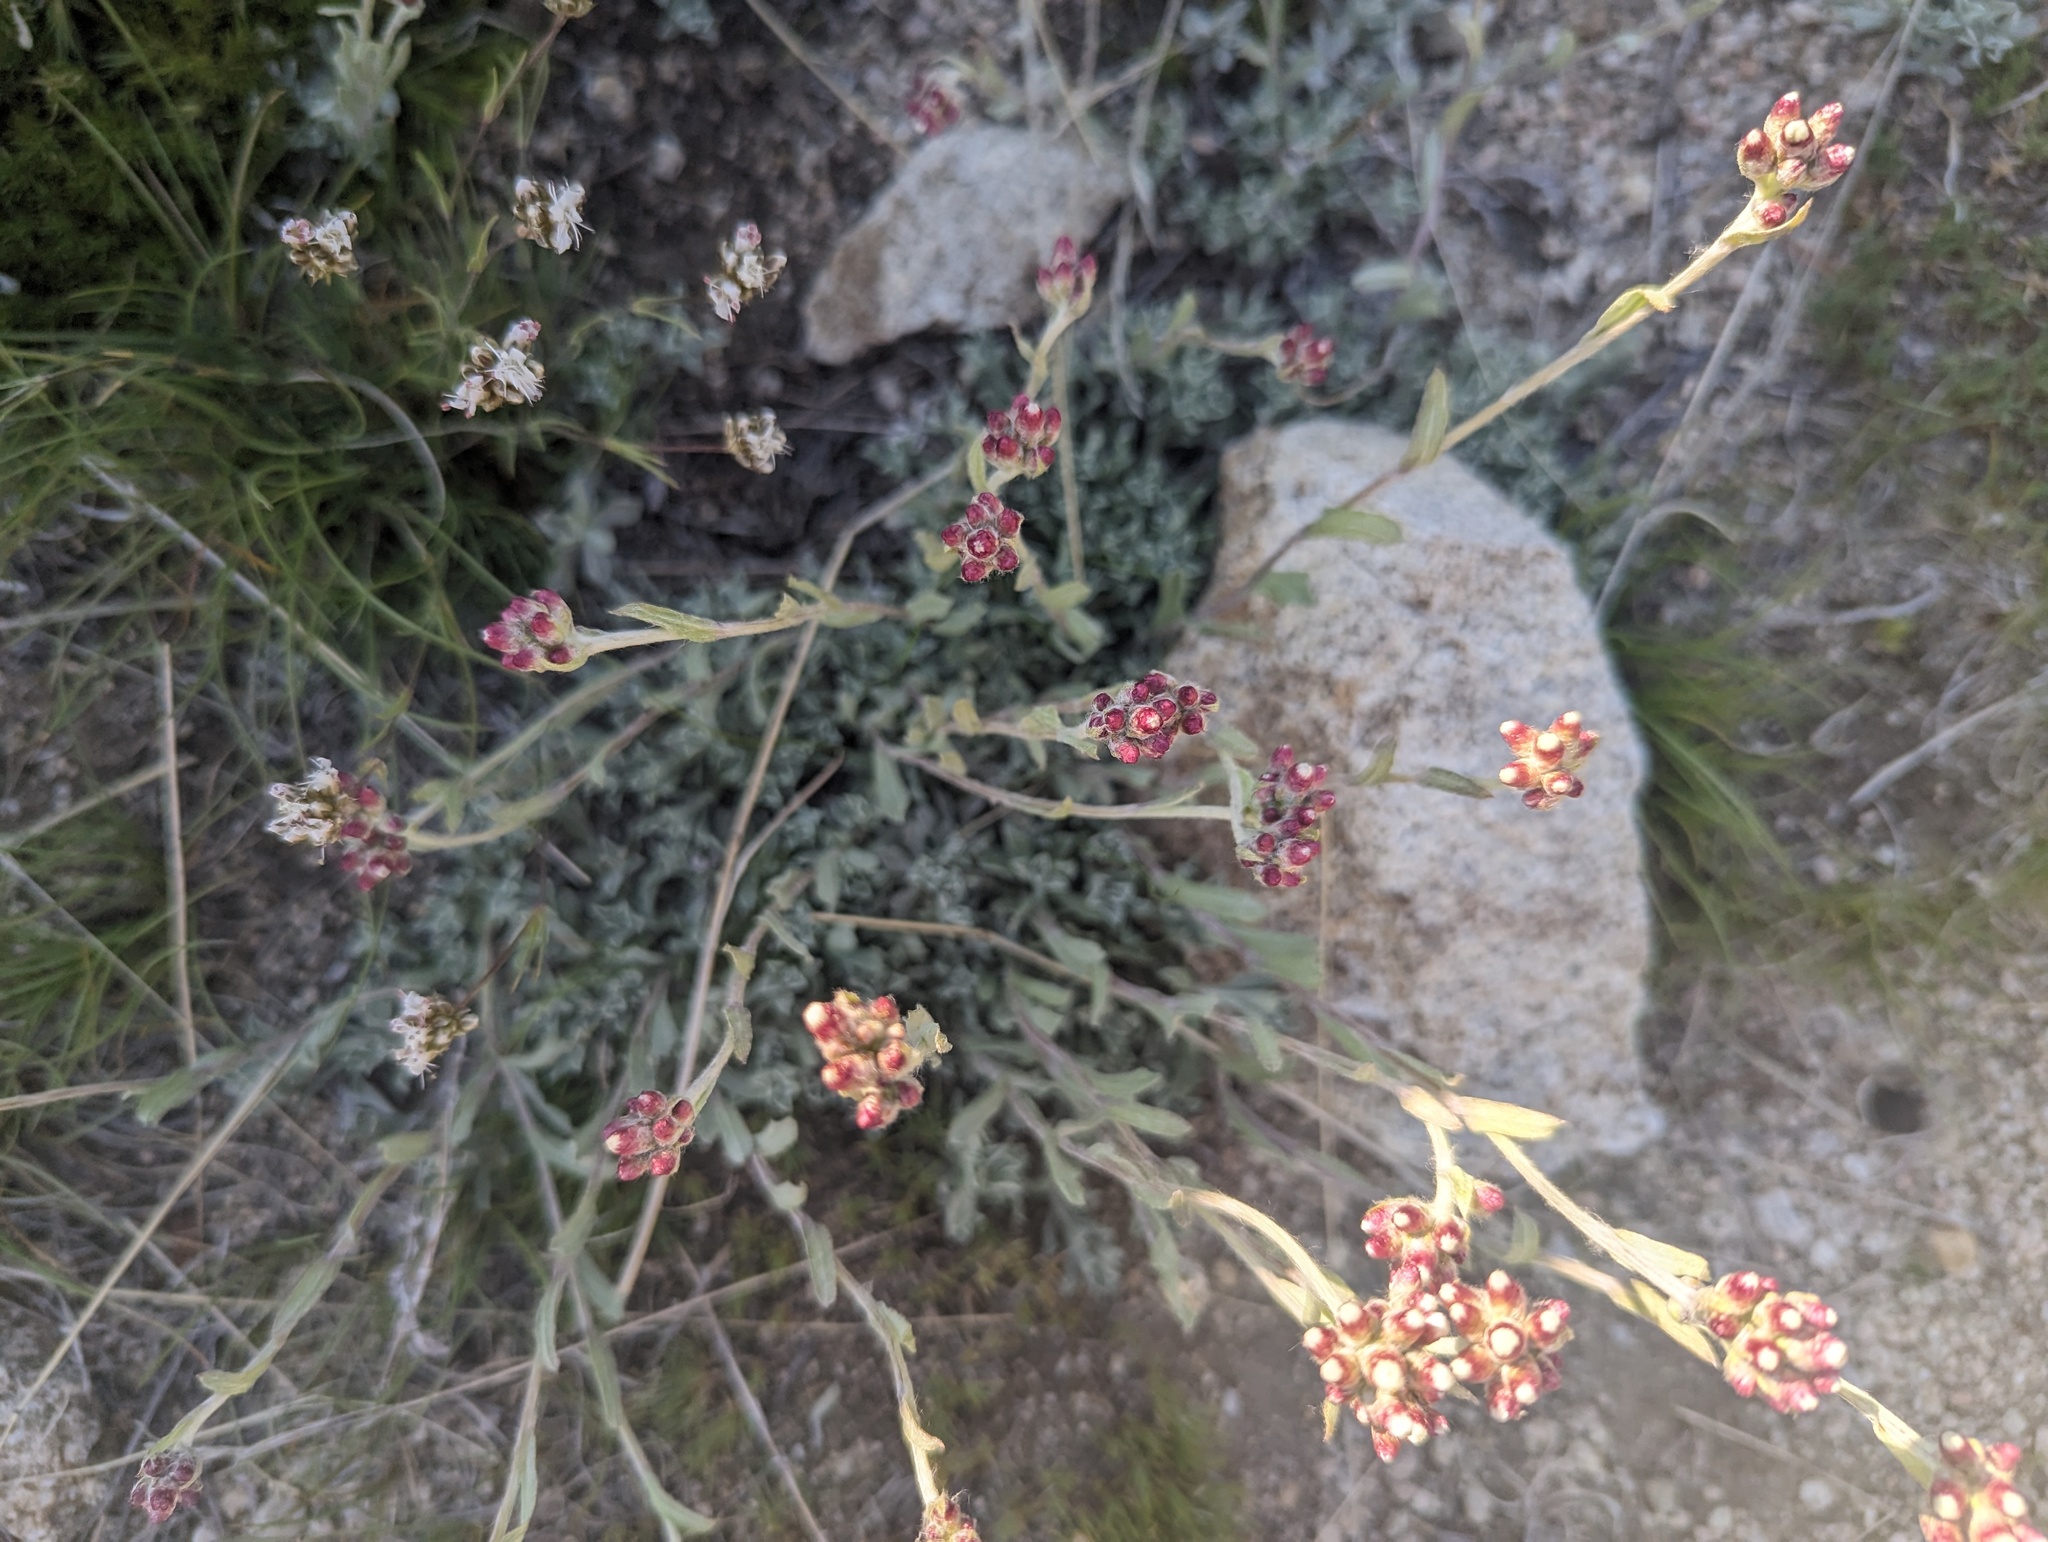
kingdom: Plantae
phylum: Tracheophyta
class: Magnoliopsida
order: Asterales
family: Asteraceae
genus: Antennaria
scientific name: Antennaria rosea
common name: Rosy pussytoes
